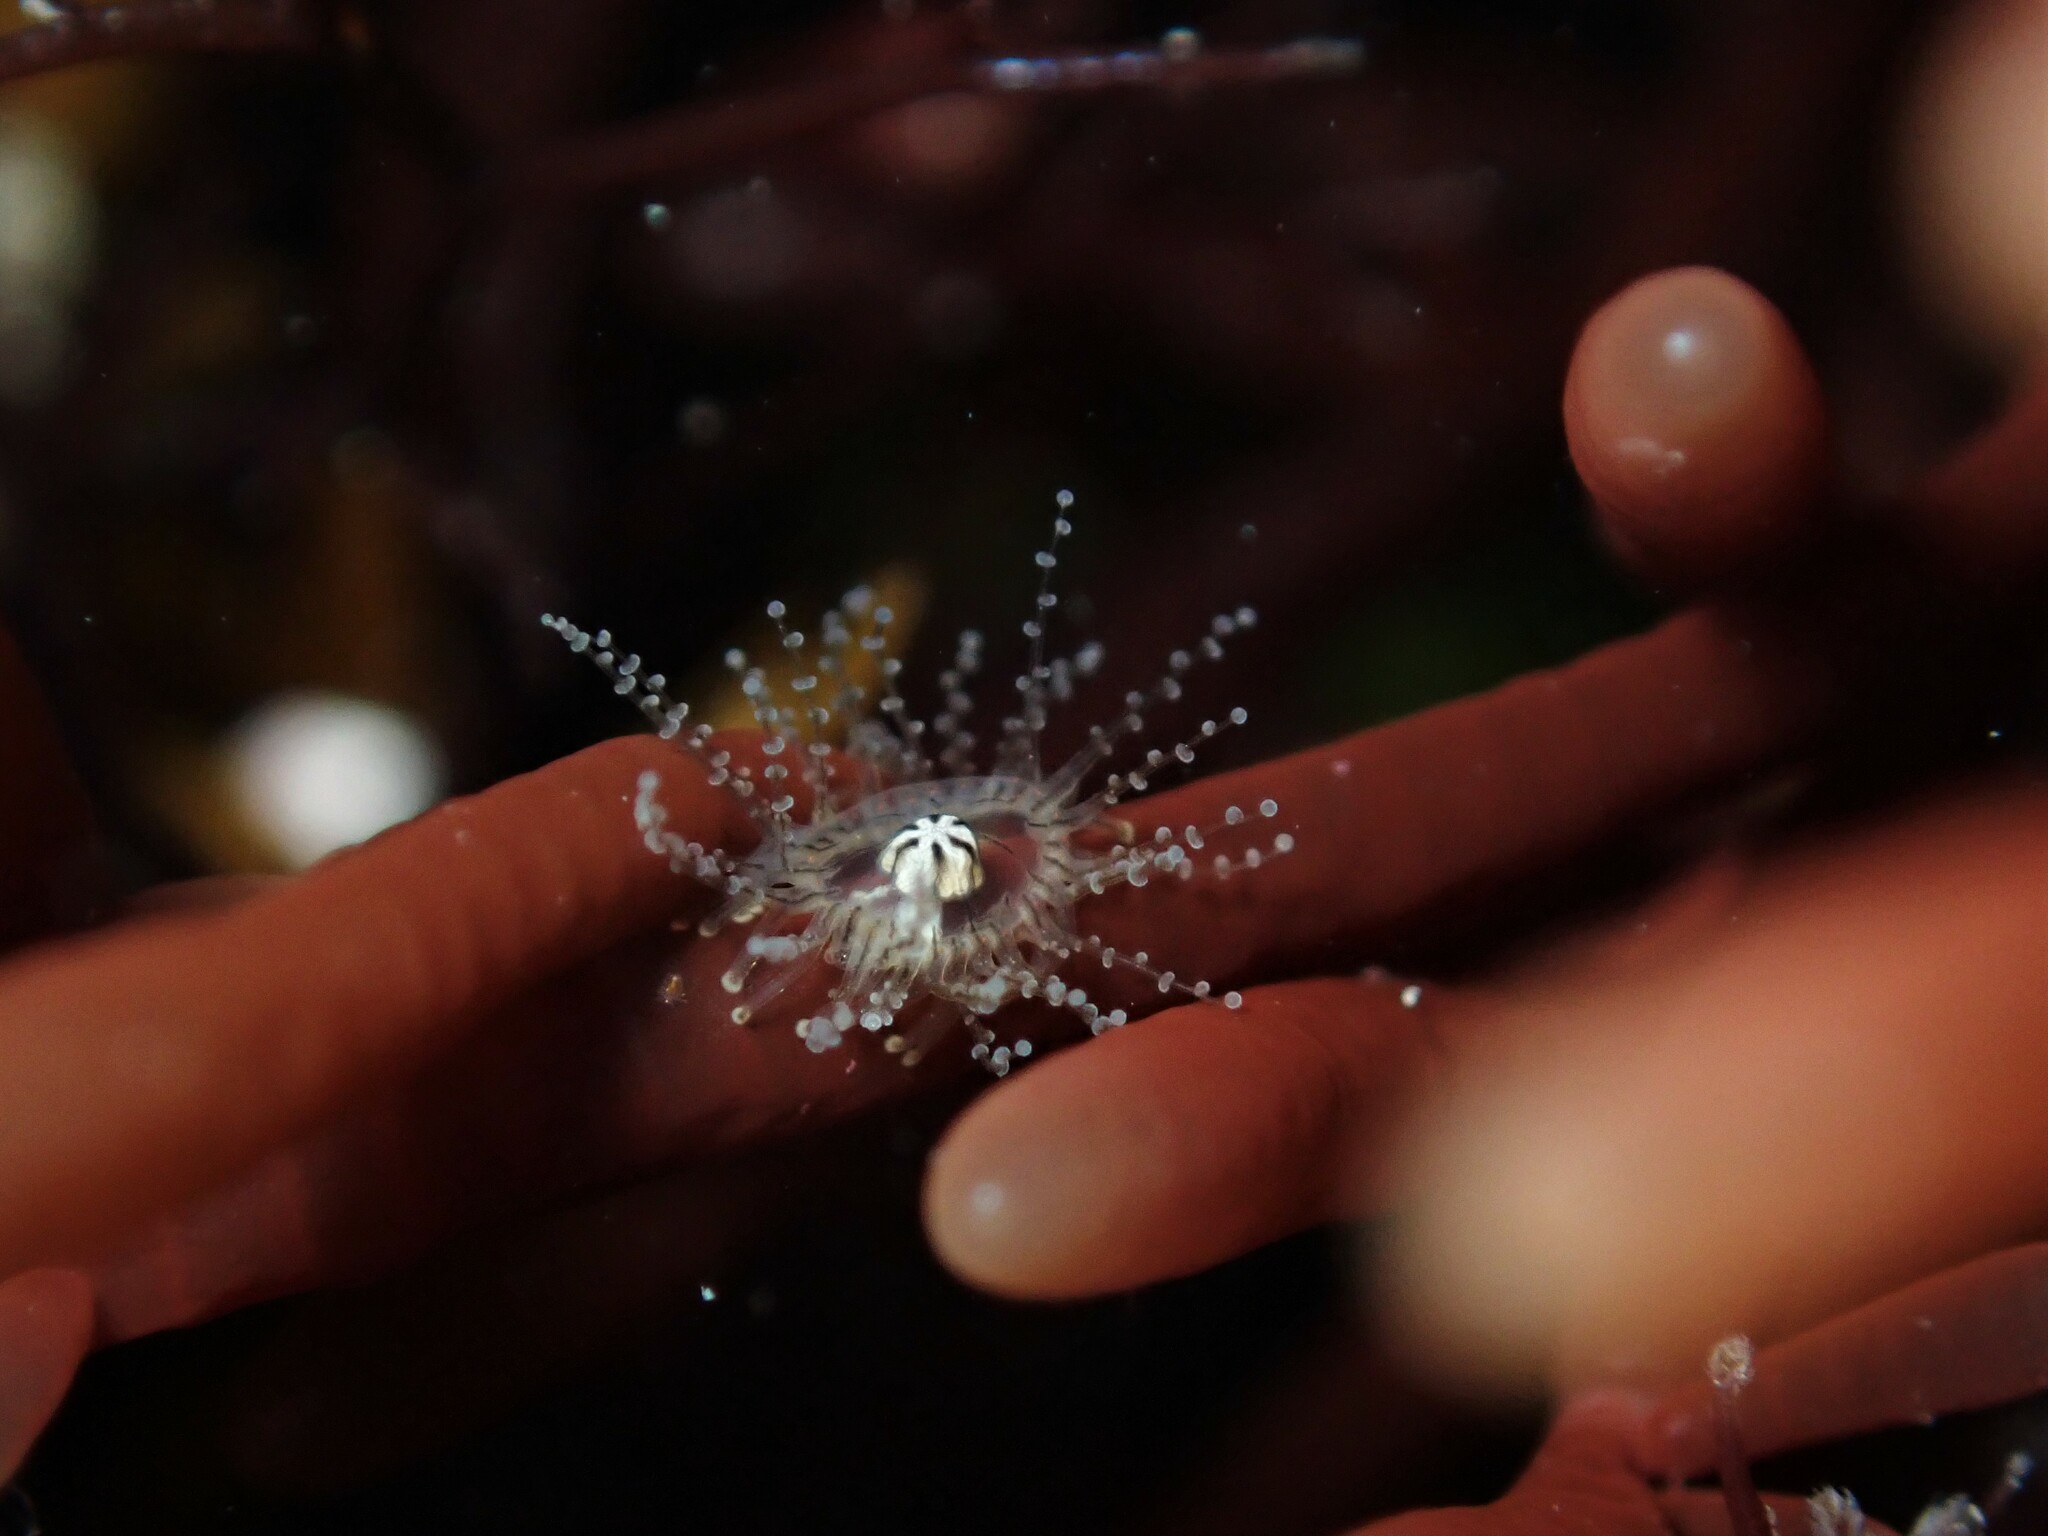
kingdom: Animalia
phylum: Cnidaria
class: Hydrozoa
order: Anthoathecata
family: Cladonematidae
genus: Staurocladia
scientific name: Staurocladia wellingtoni
